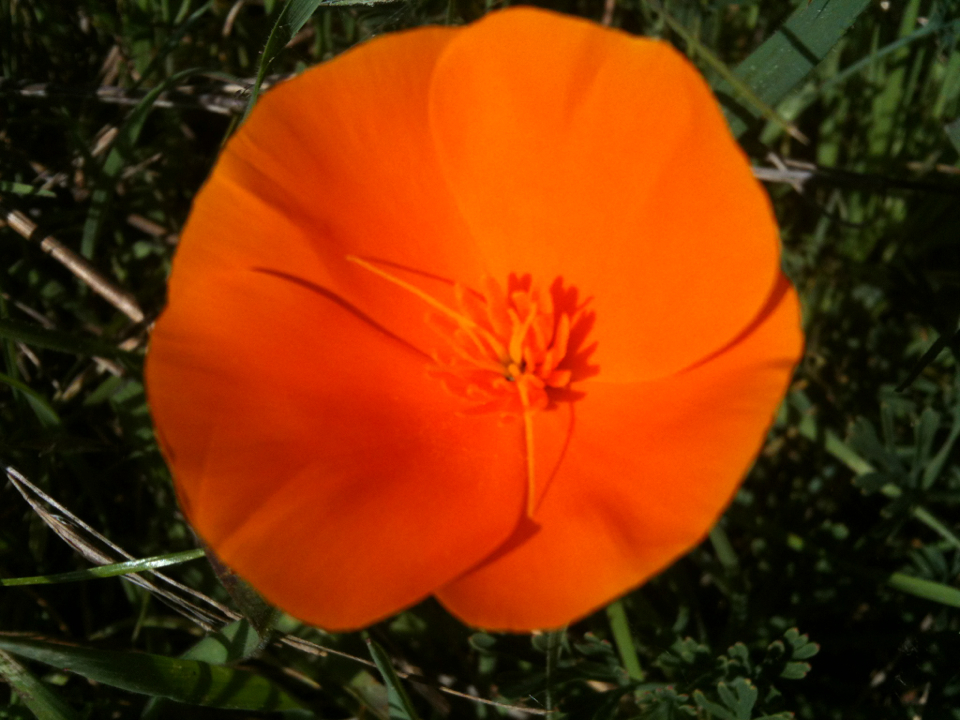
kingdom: Plantae
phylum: Tracheophyta
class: Magnoliopsida
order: Ranunculales
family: Papaveraceae
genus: Eschscholzia
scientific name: Eschscholzia californica
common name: California poppy
